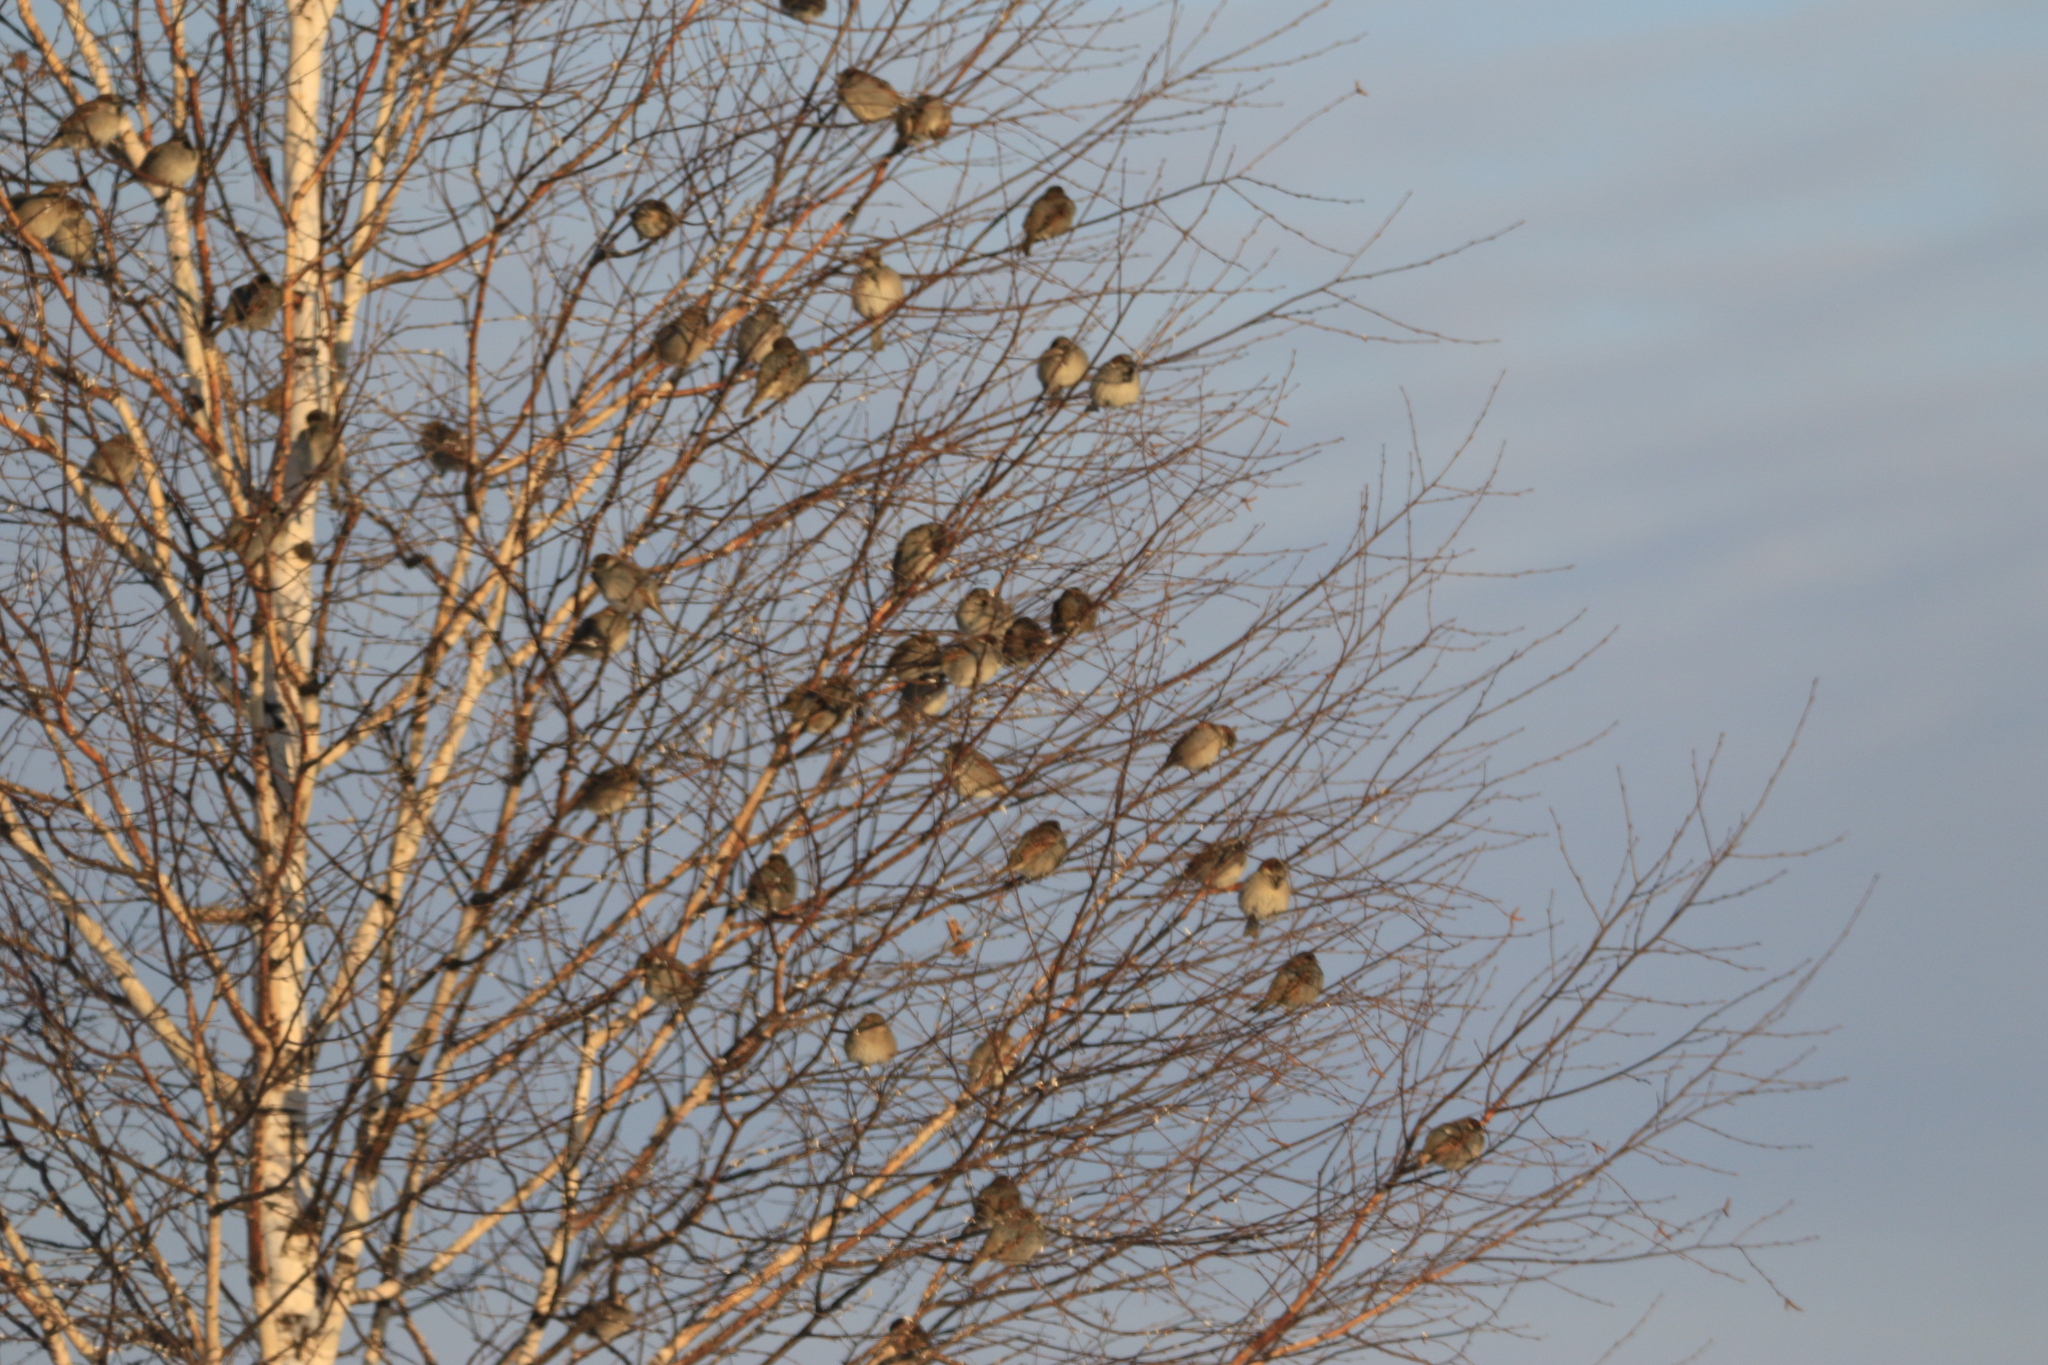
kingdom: Animalia
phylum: Chordata
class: Aves
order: Passeriformes
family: Passeridae
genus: Passer
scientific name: Passer montanus
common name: Eurasian tree sparrow
